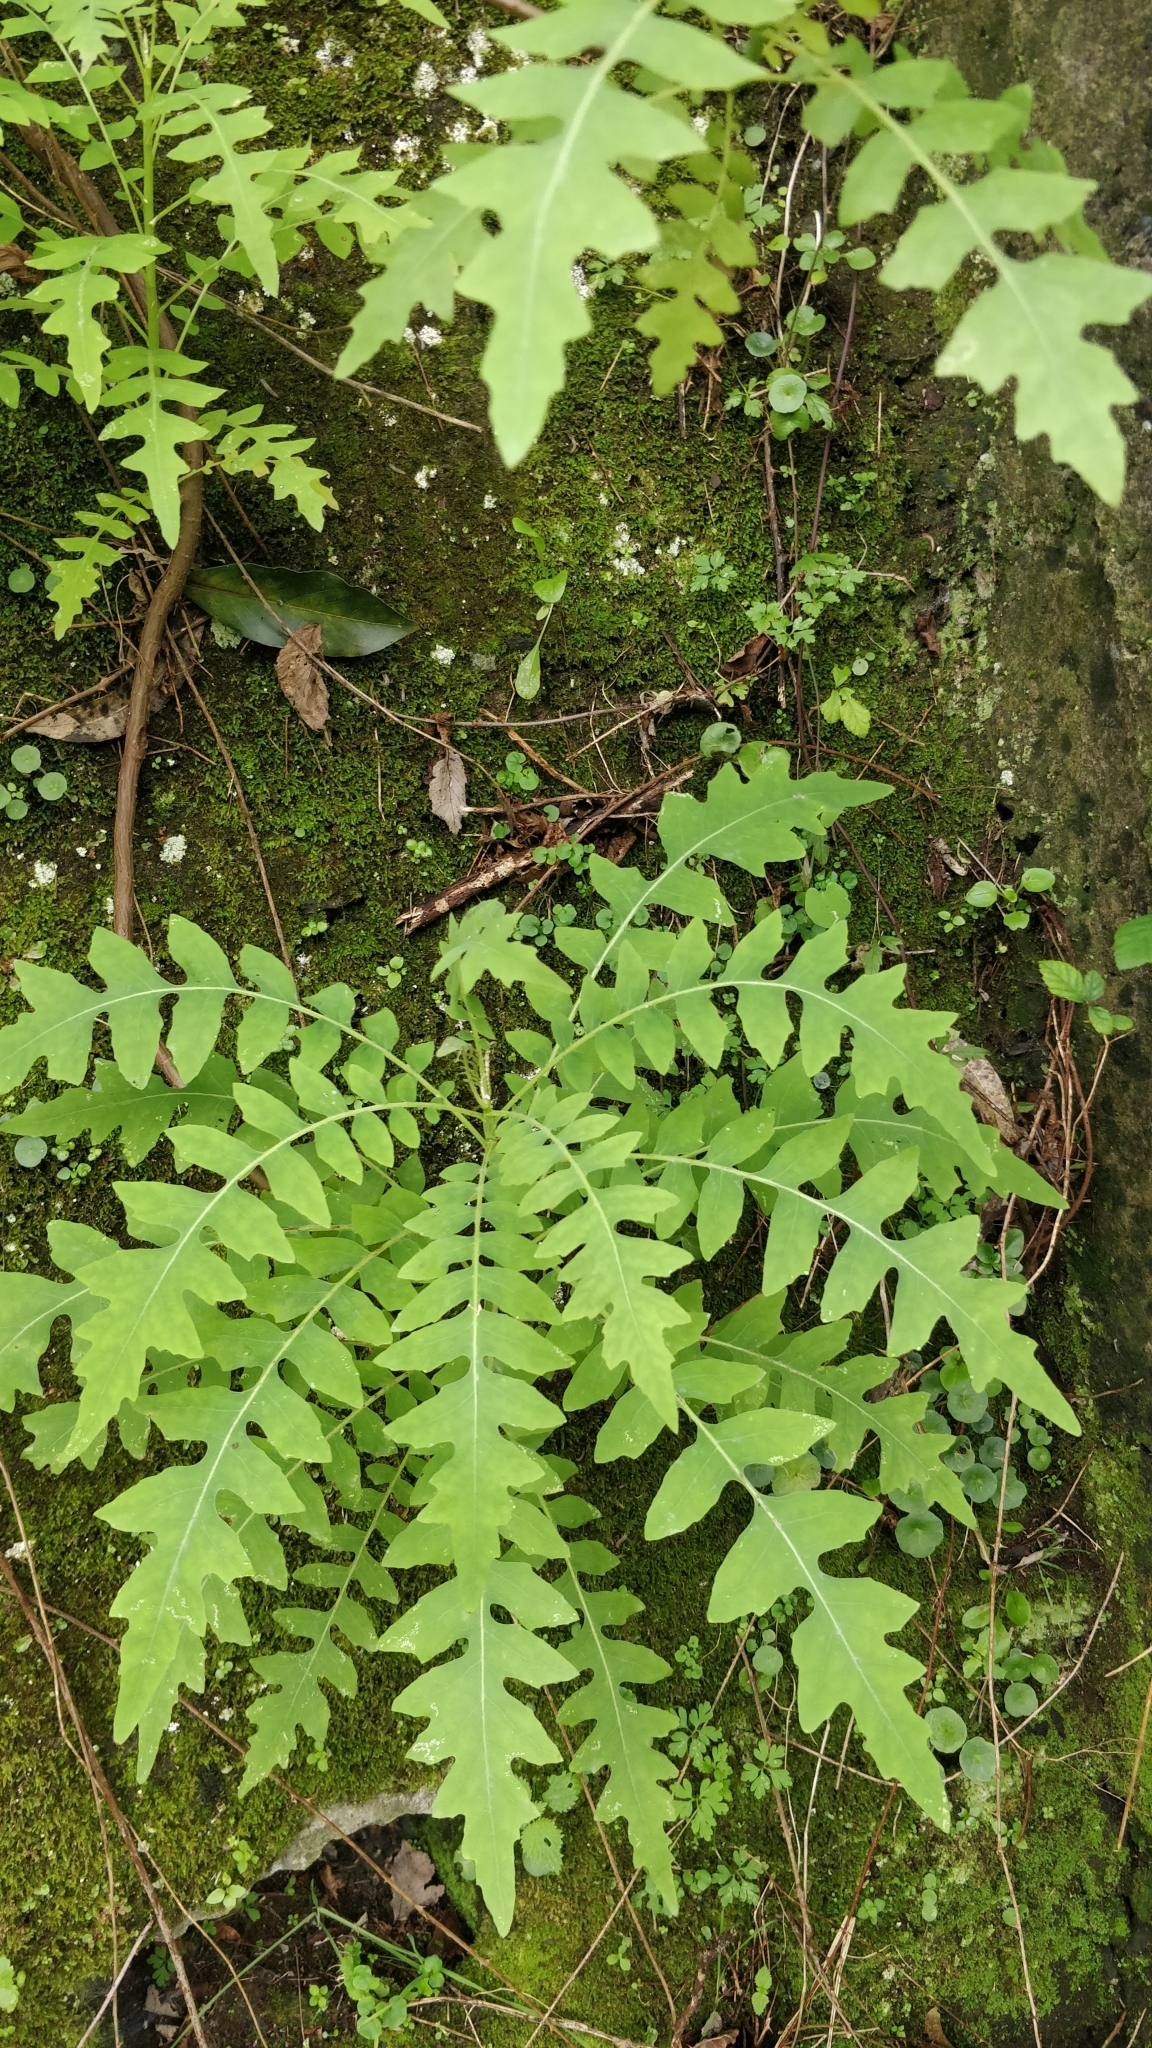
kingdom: Plantae
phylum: Tracheophyta
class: Magnoliopsida
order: Asterales
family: Asteraceae
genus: Sonchus
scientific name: Sonchus pinnatus
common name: Wing-leaved sow-thistle
